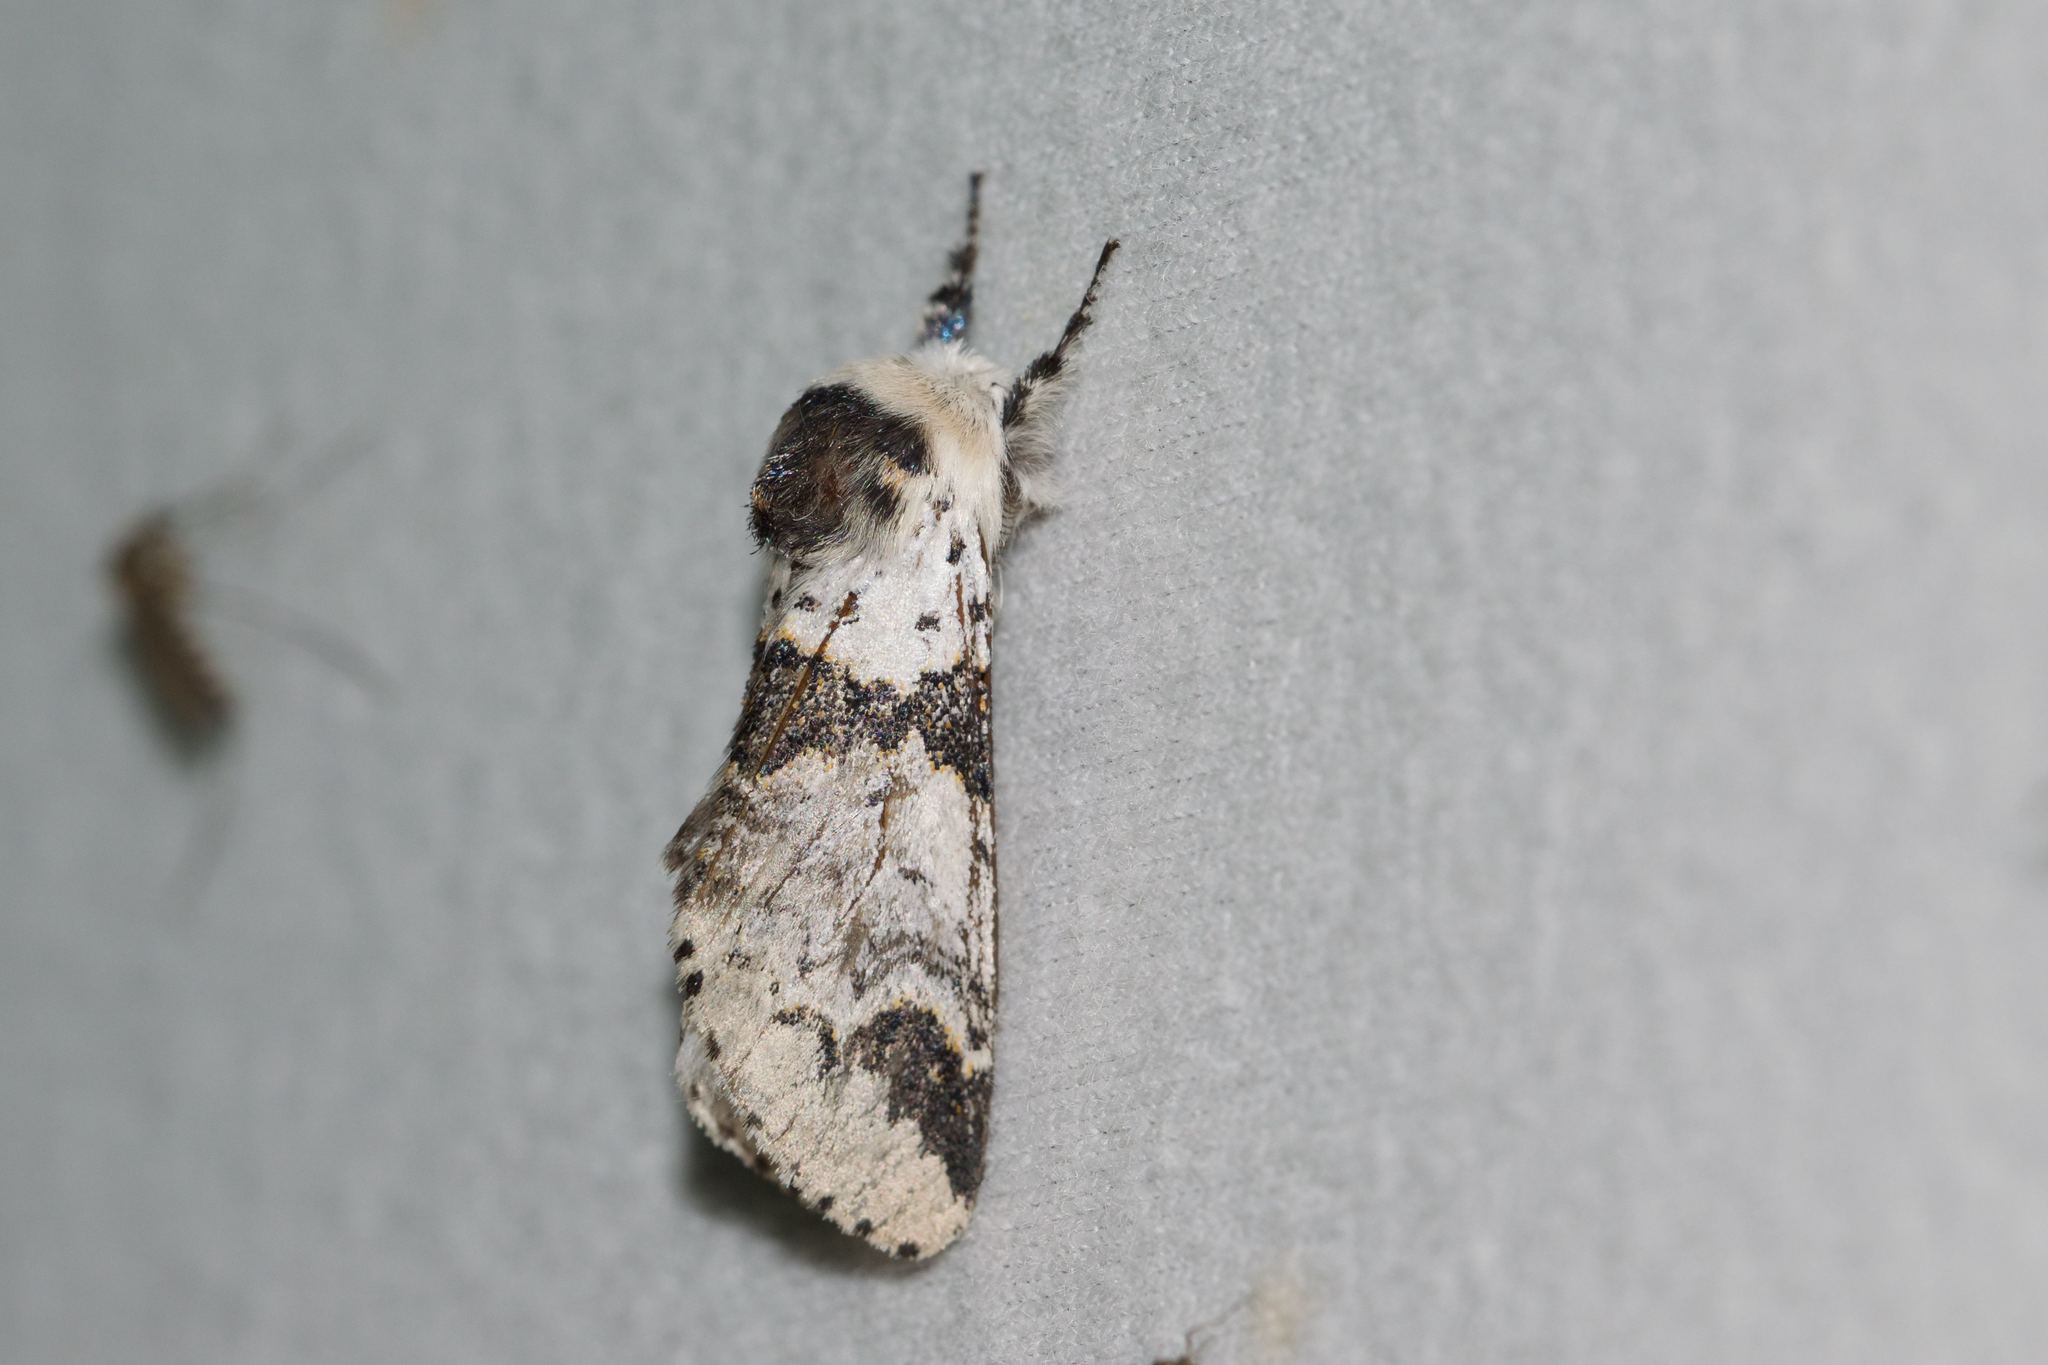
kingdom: Animalia
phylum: Arthropoda
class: Insecta
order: Lepidoptera
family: Notodontidae
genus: Furcula
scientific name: Furcula scolopendrina
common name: Zigzag furcula moth
